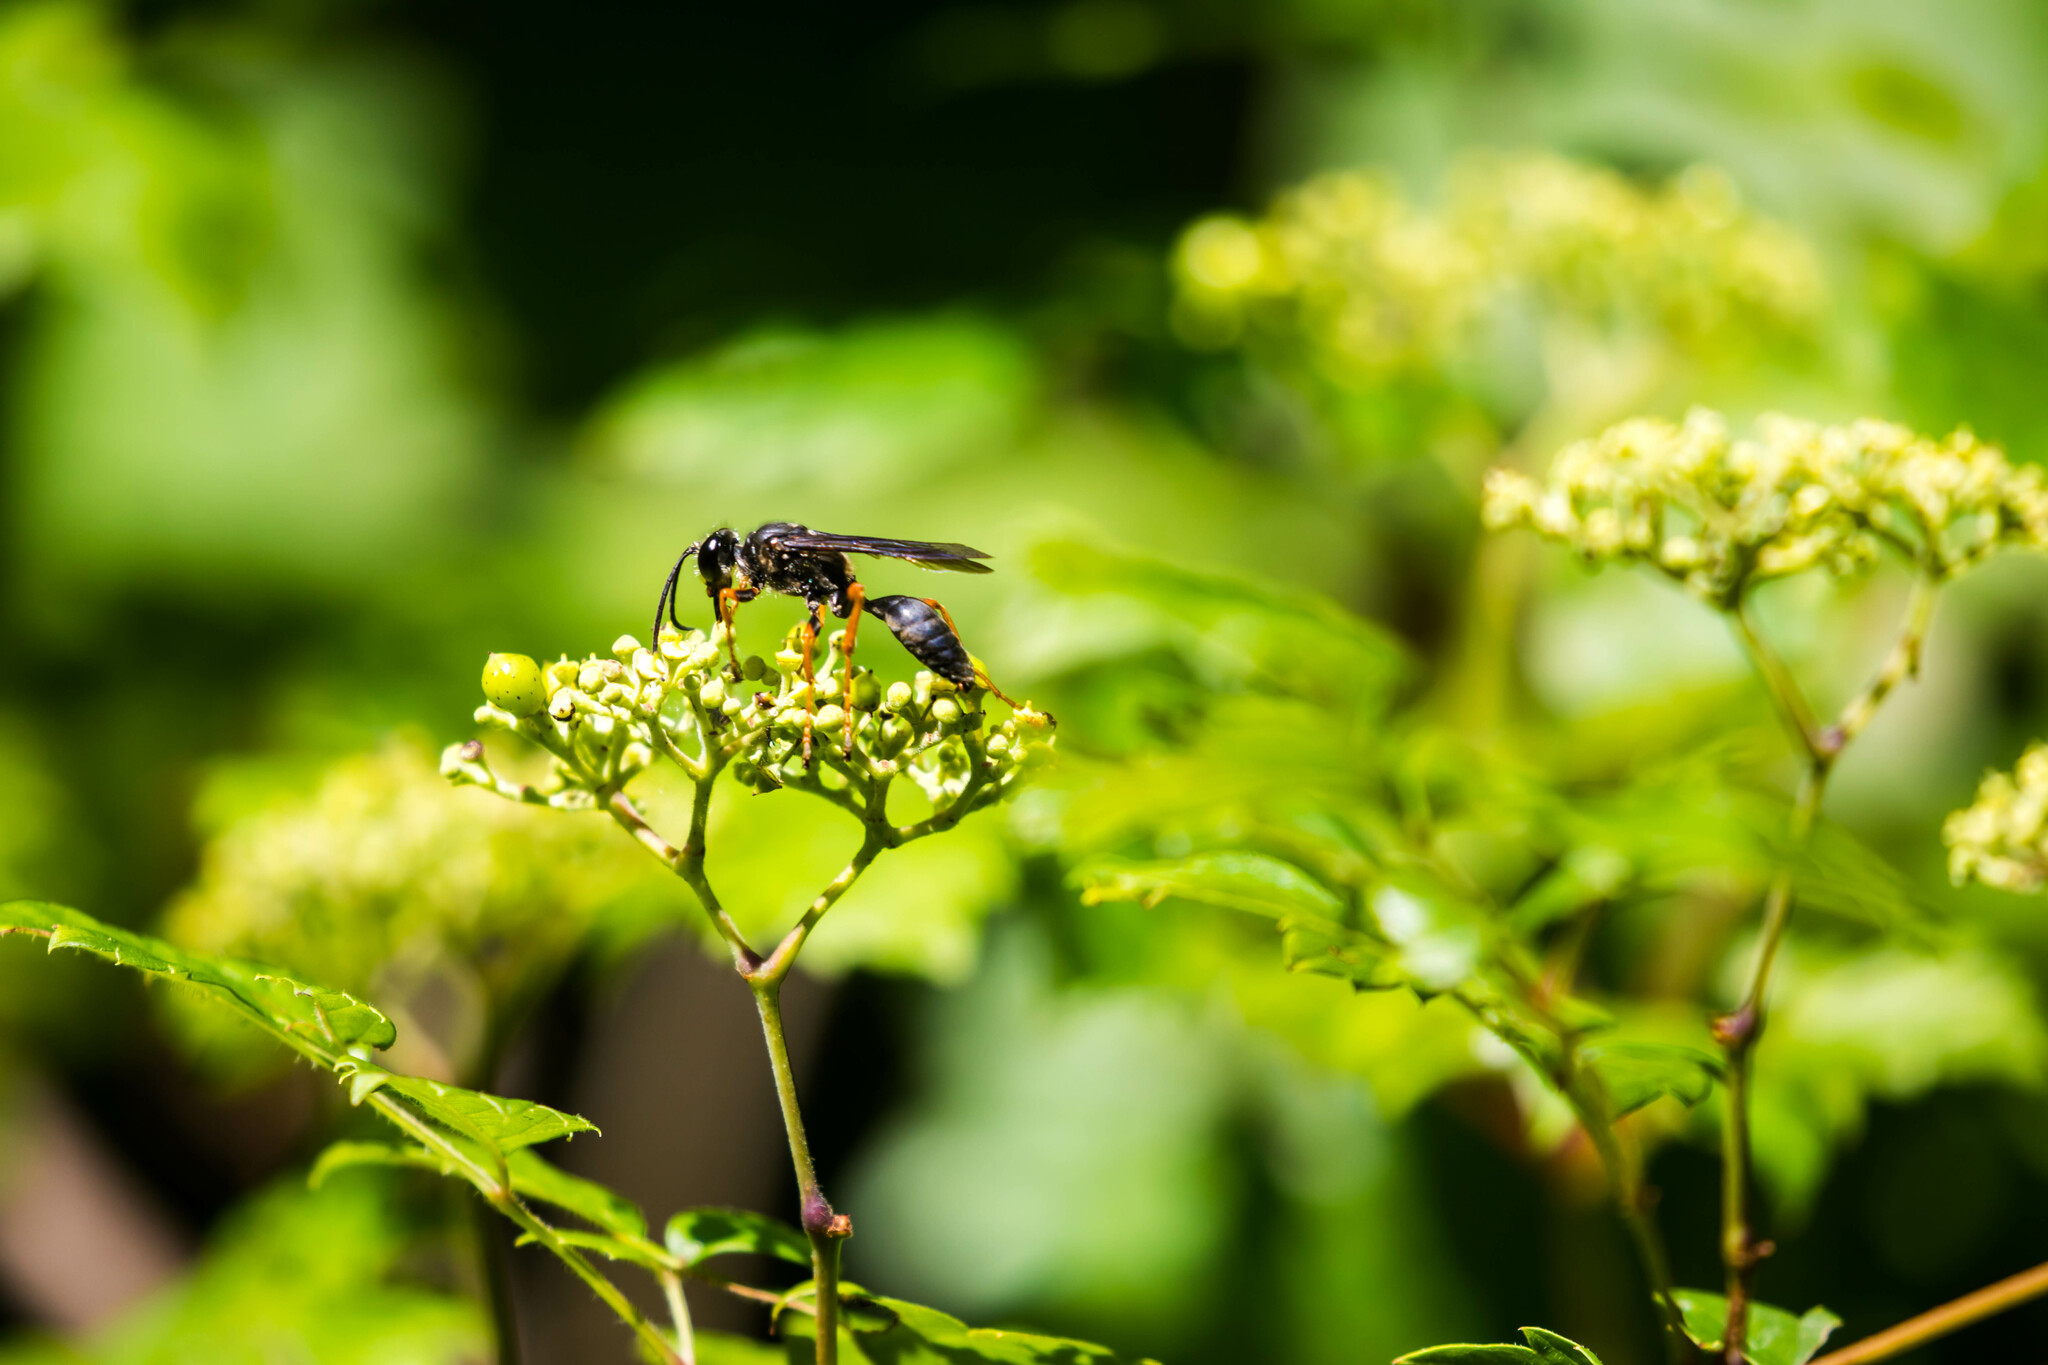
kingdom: Animalia
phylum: Arthropoda
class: Insecta
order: Hymenoptera
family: Sphecidae
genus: Sphex
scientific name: Sphex nudus
